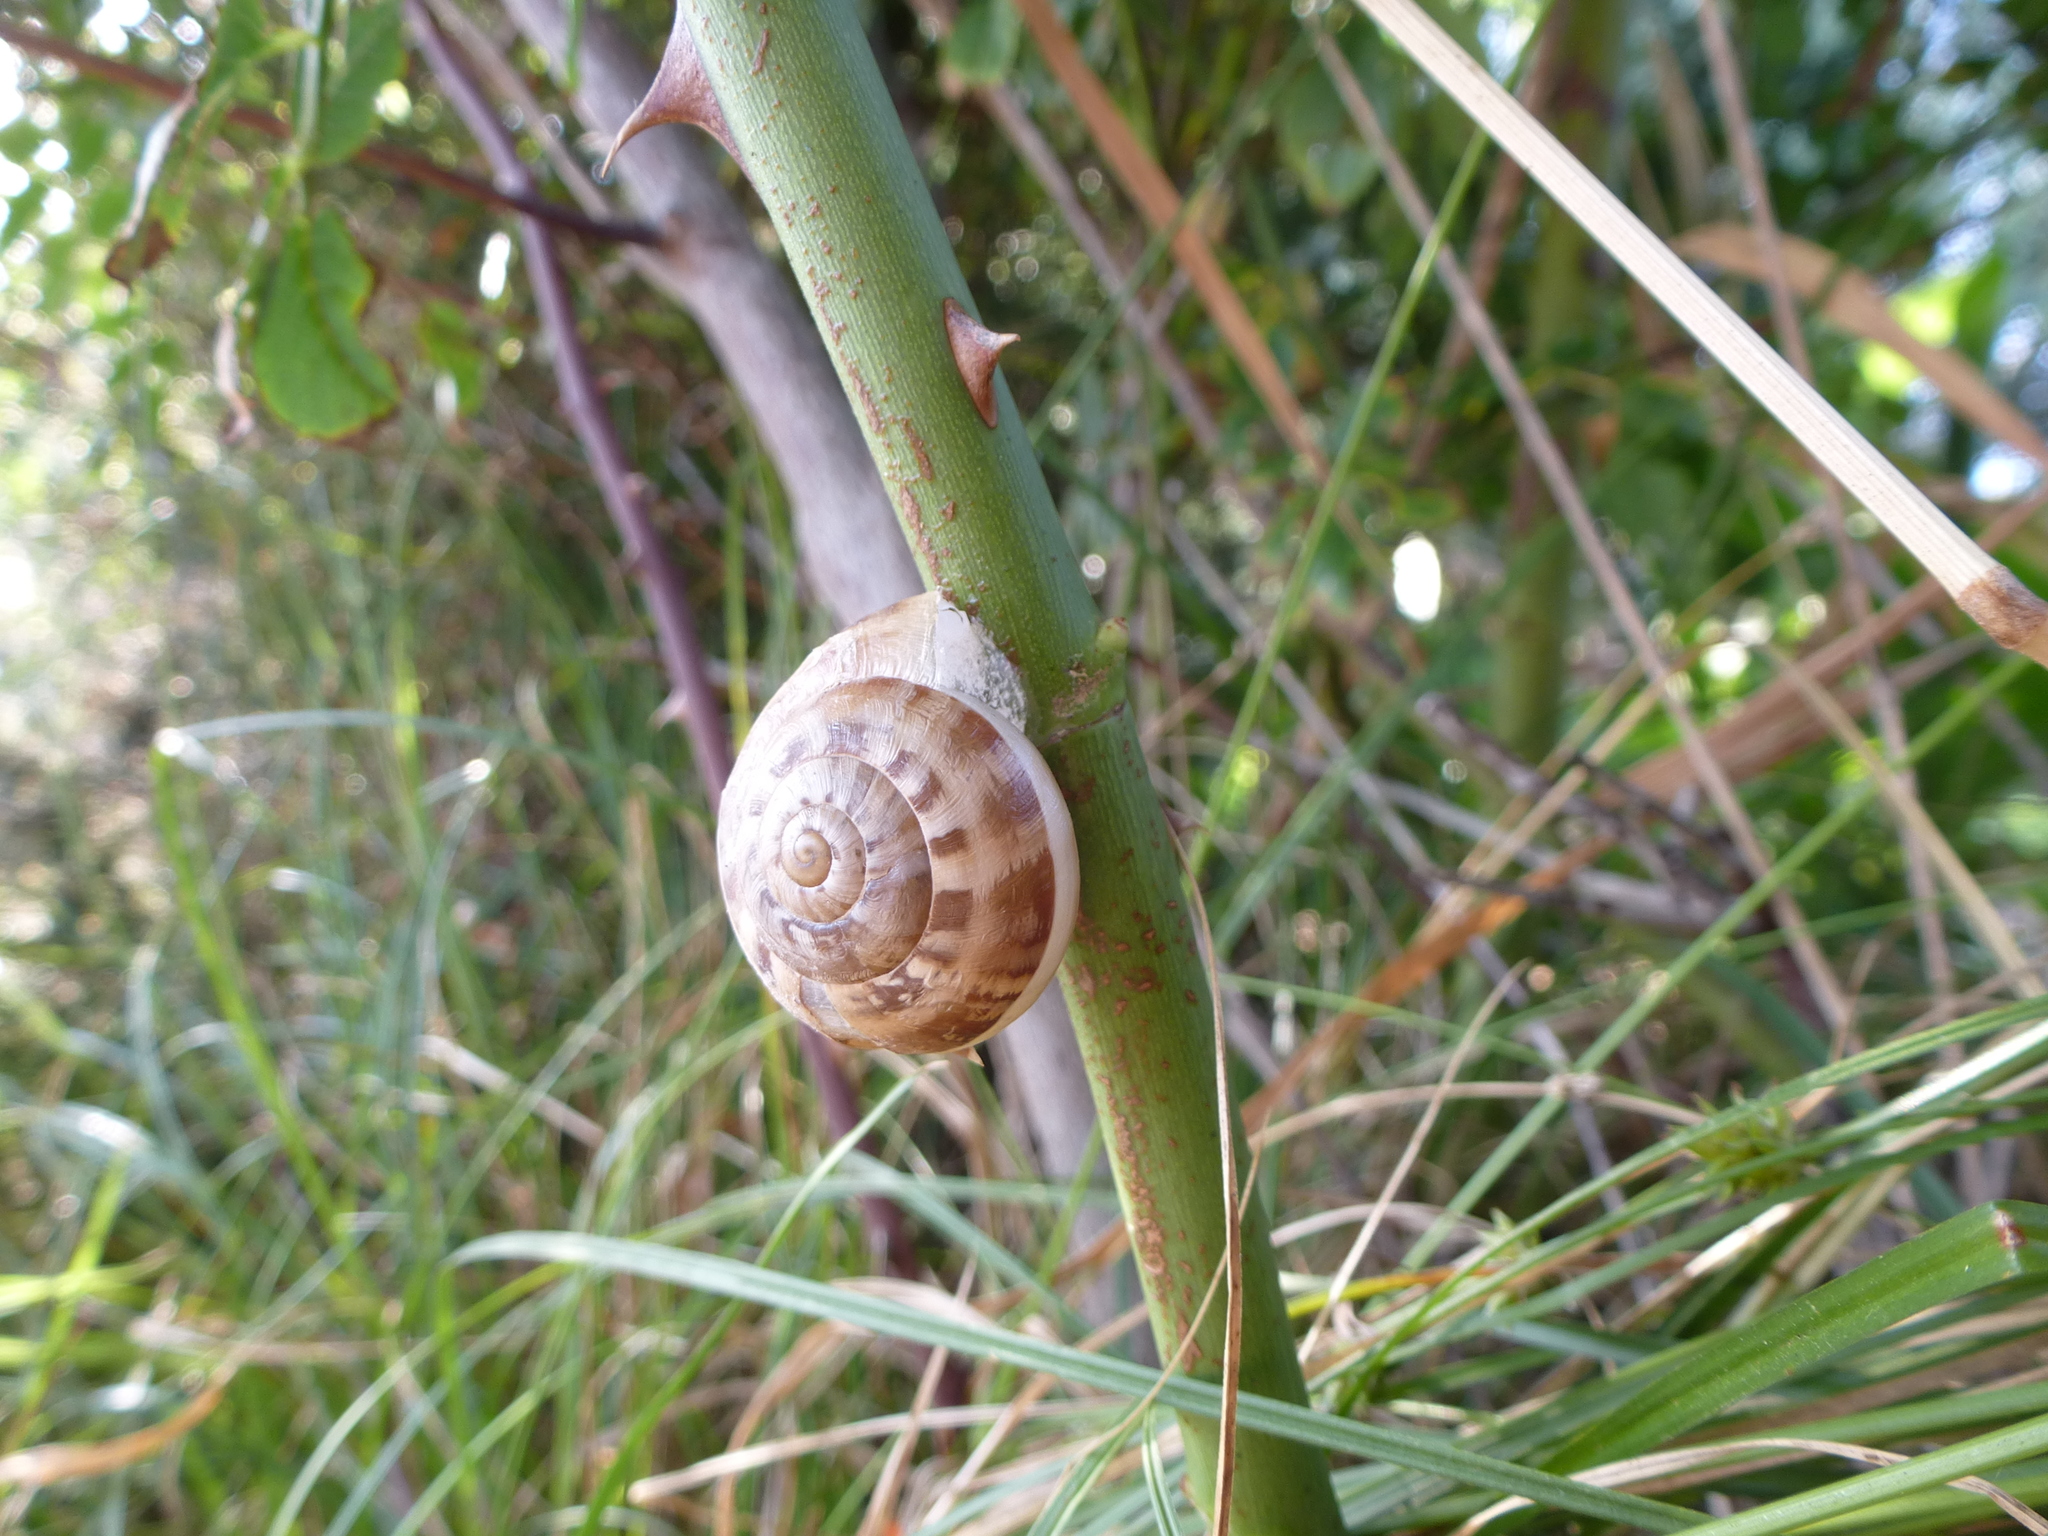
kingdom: Animalia
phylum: Mollusca
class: Gastropoda
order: Stylommatophora
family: Helicidae
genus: Eobania
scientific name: Eobania vermiculata
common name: Chocolateband snail
